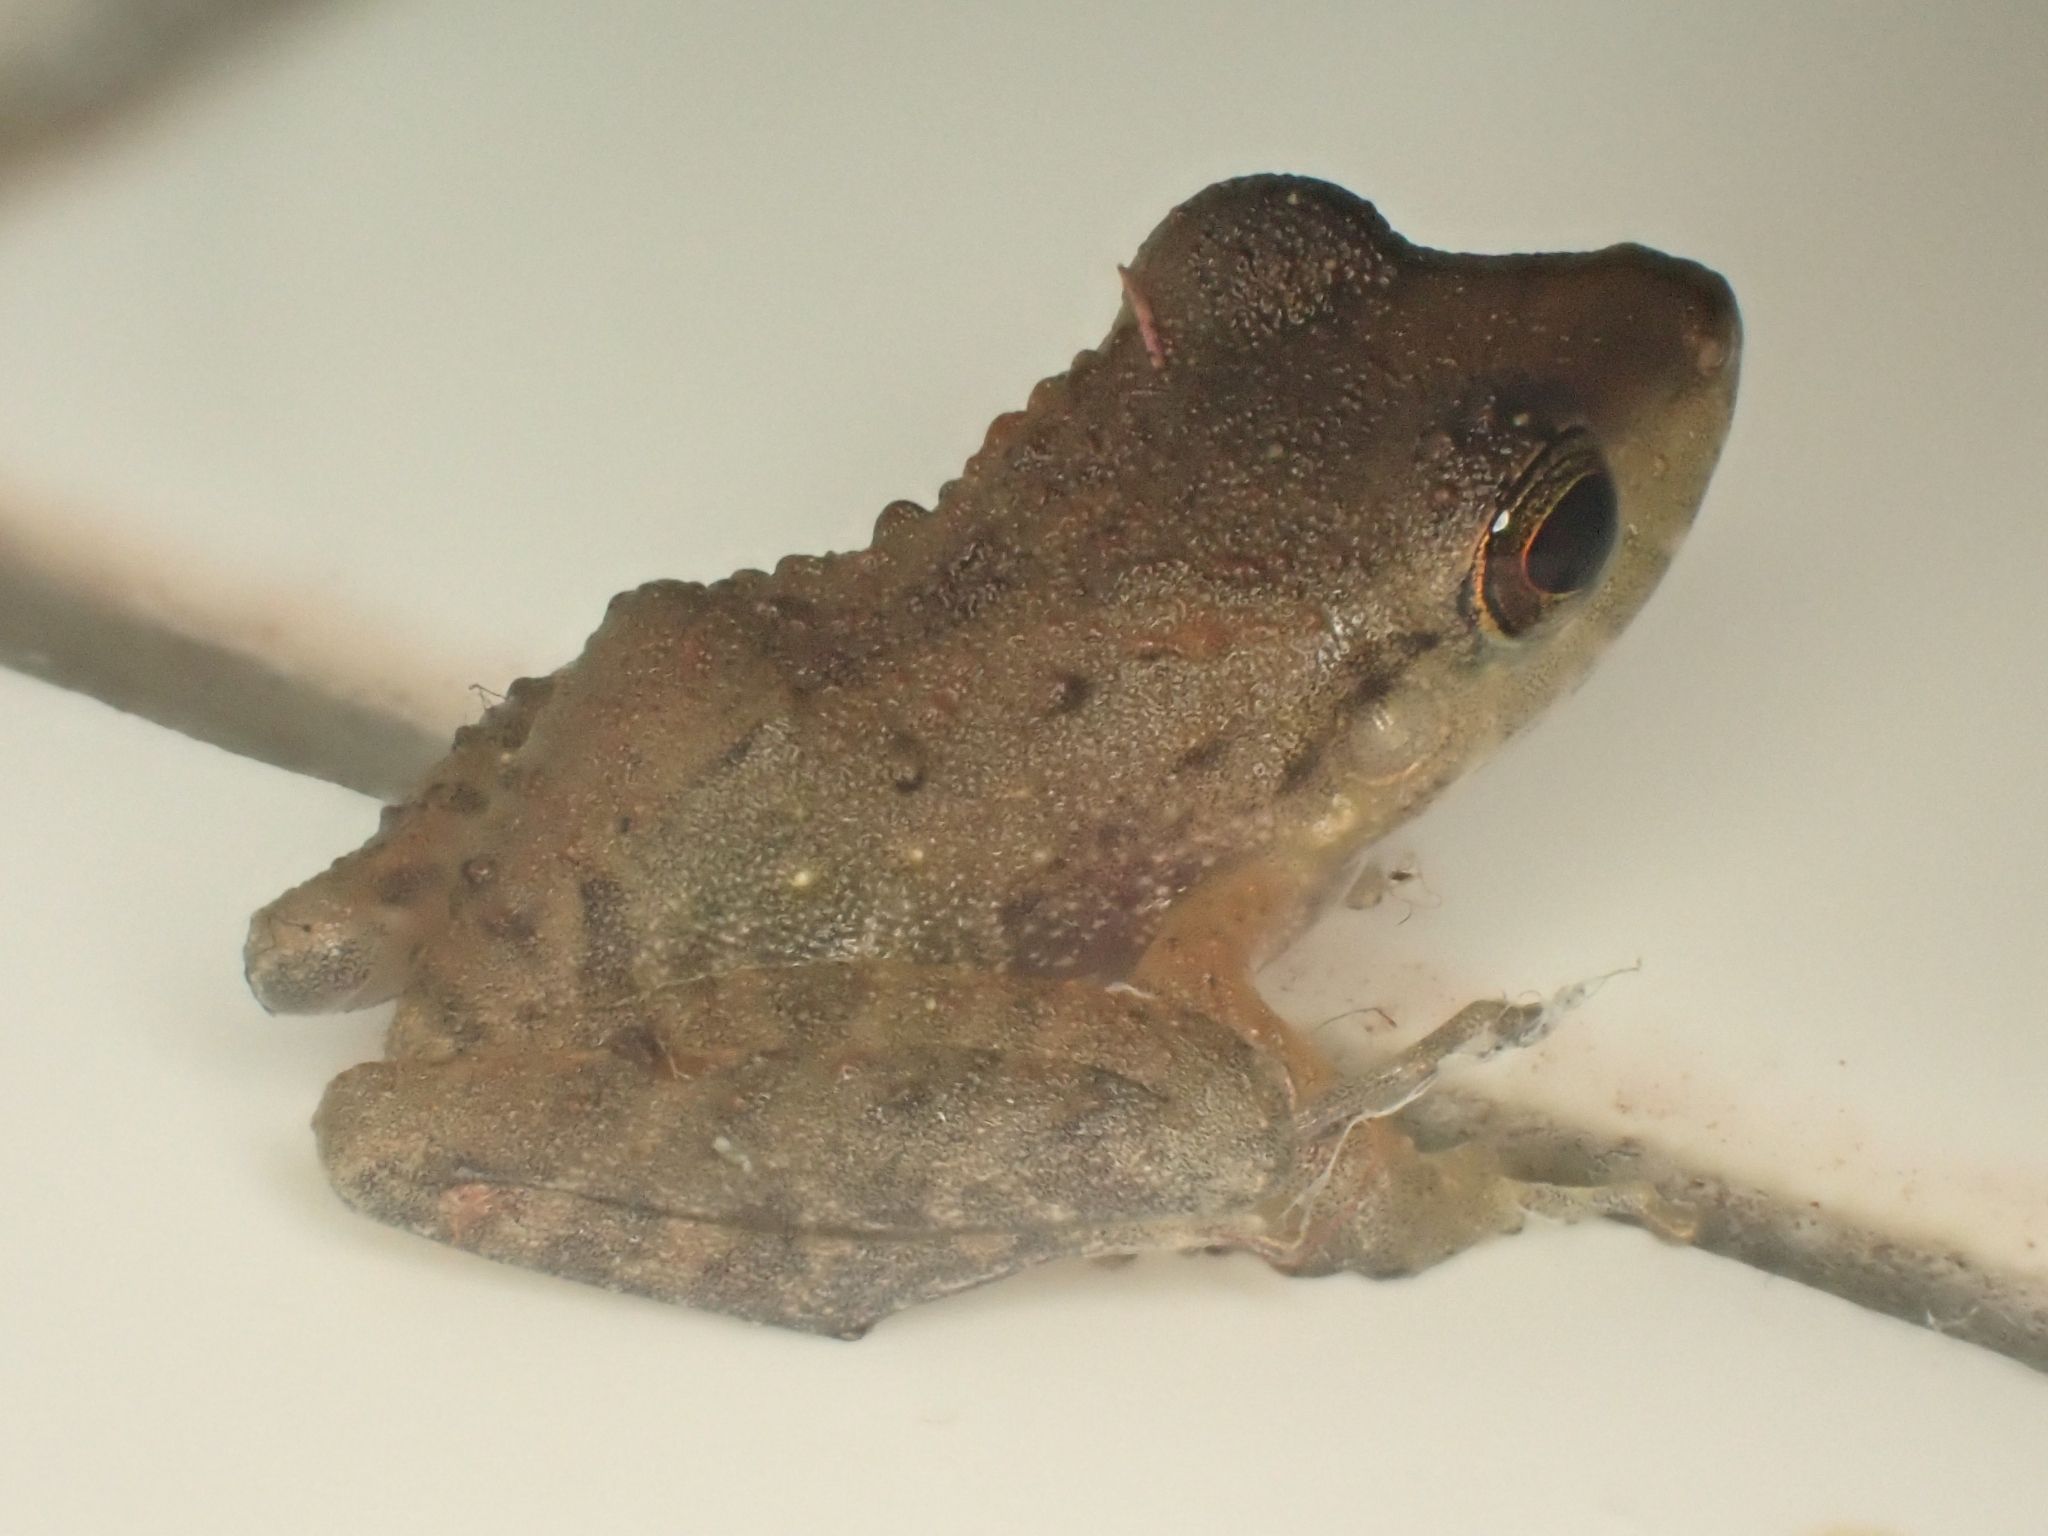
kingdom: Animalia
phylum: Chordata
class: Amphibia
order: Anura
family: Craugastoridae
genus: Craugastor
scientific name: Craugastor fitzingeri
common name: Fitzinger's robber frog
